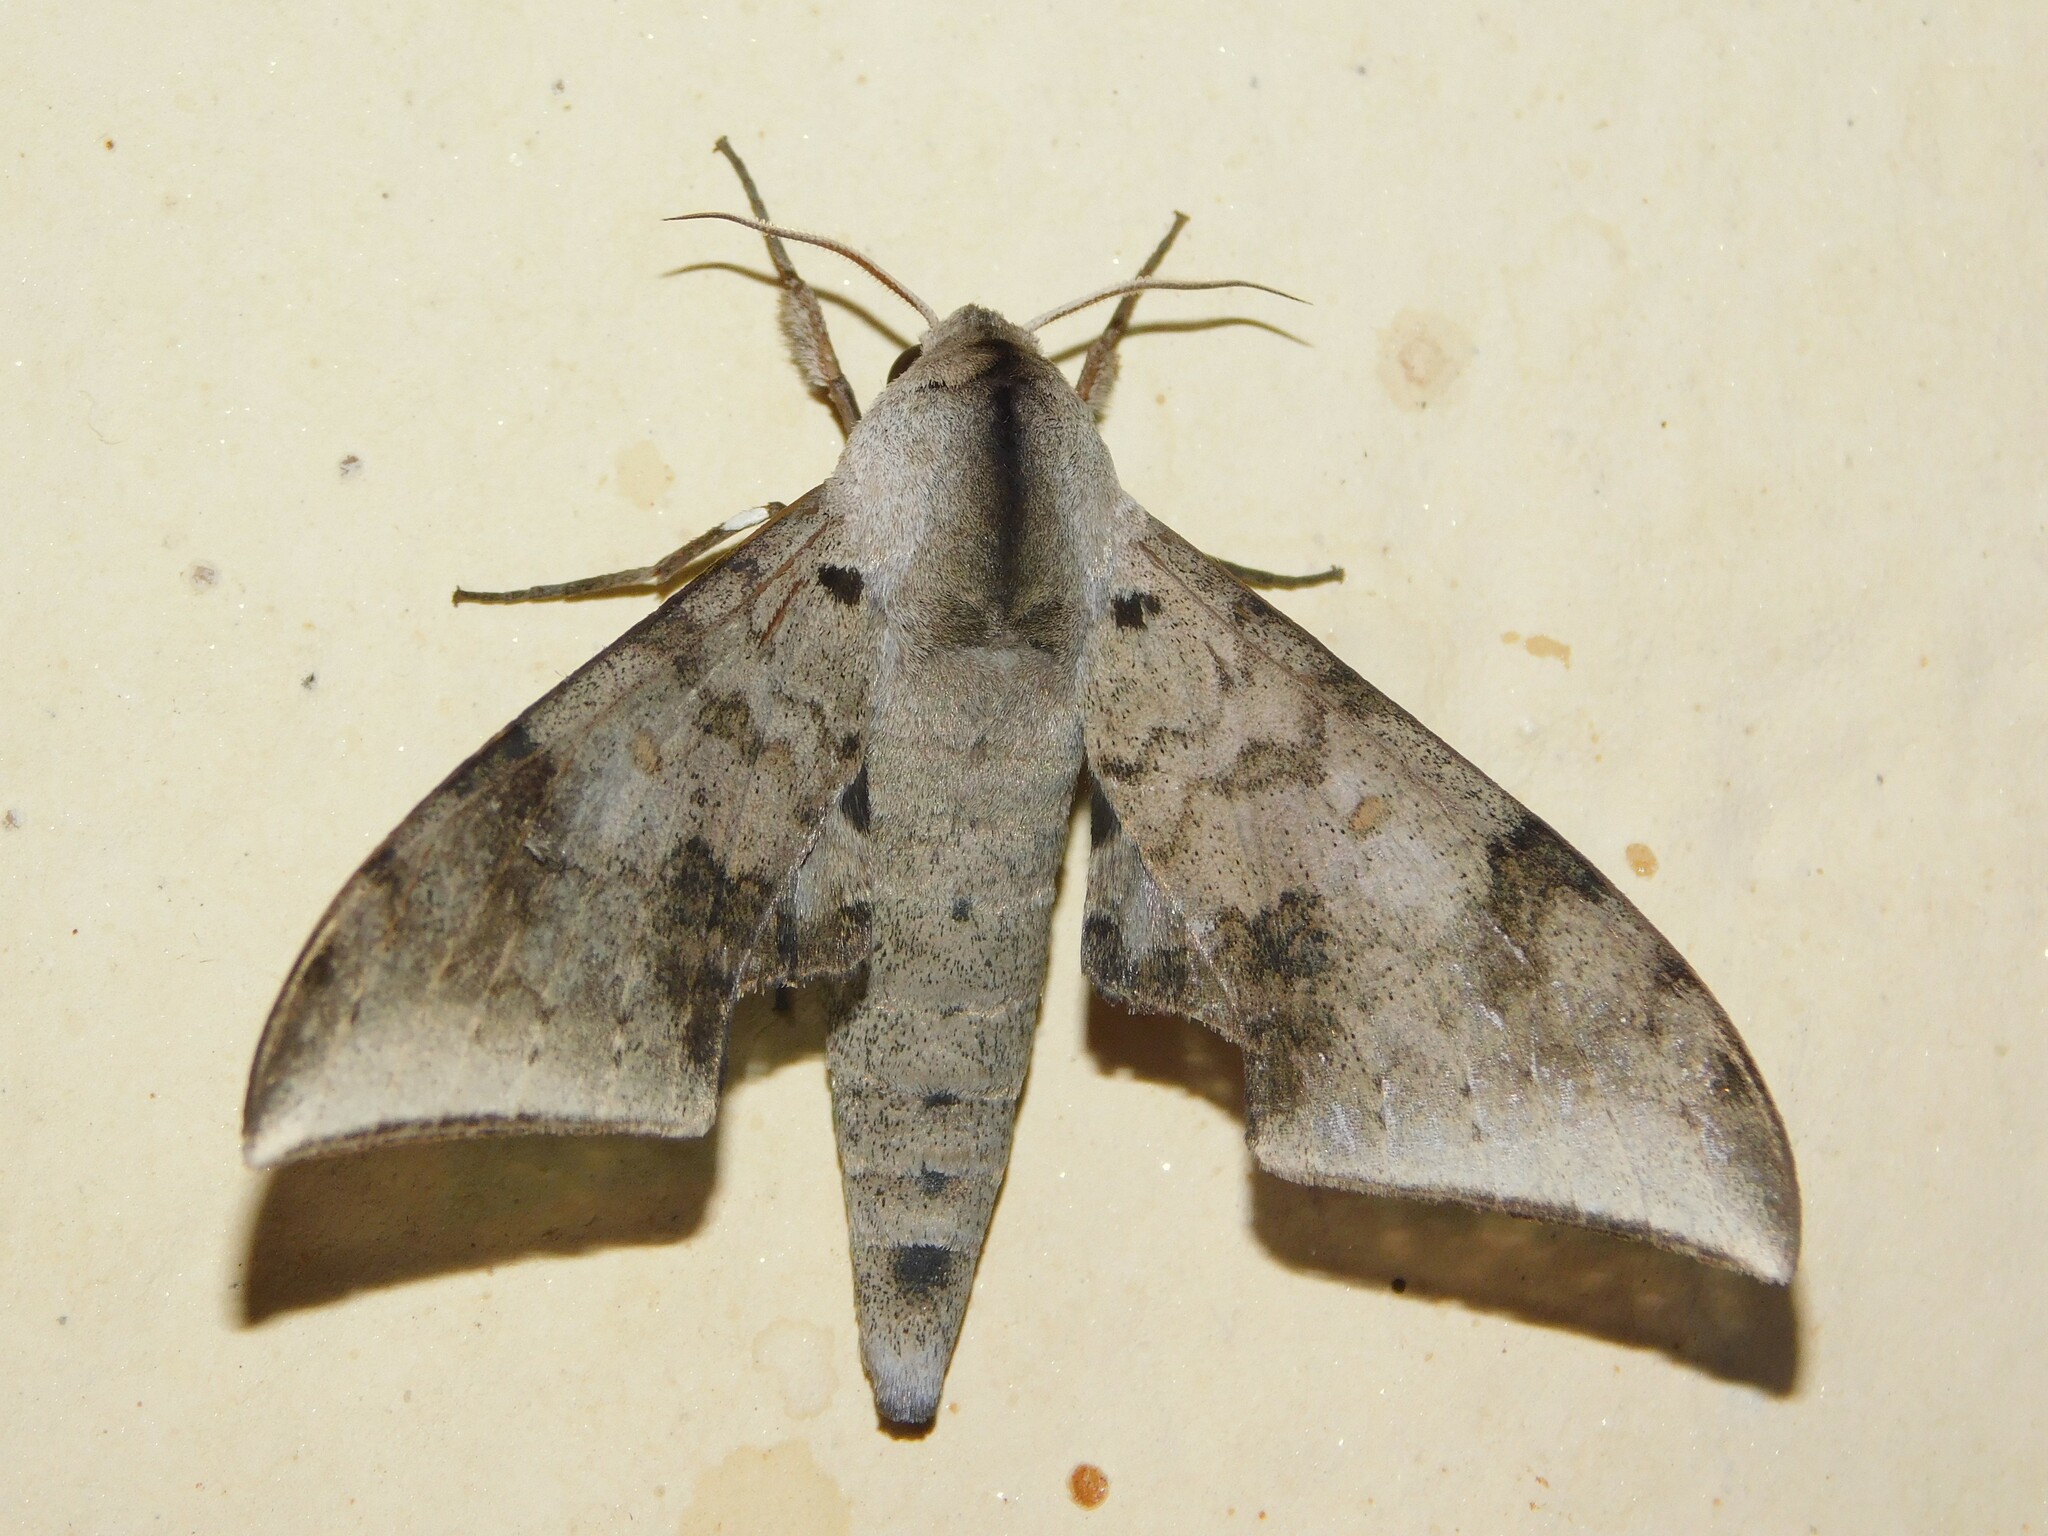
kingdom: Animalia
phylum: Arthropoda
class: Insecta
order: Lepidoptera
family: Sphingidae
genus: Polyptychus
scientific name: Polyptychus retusus
